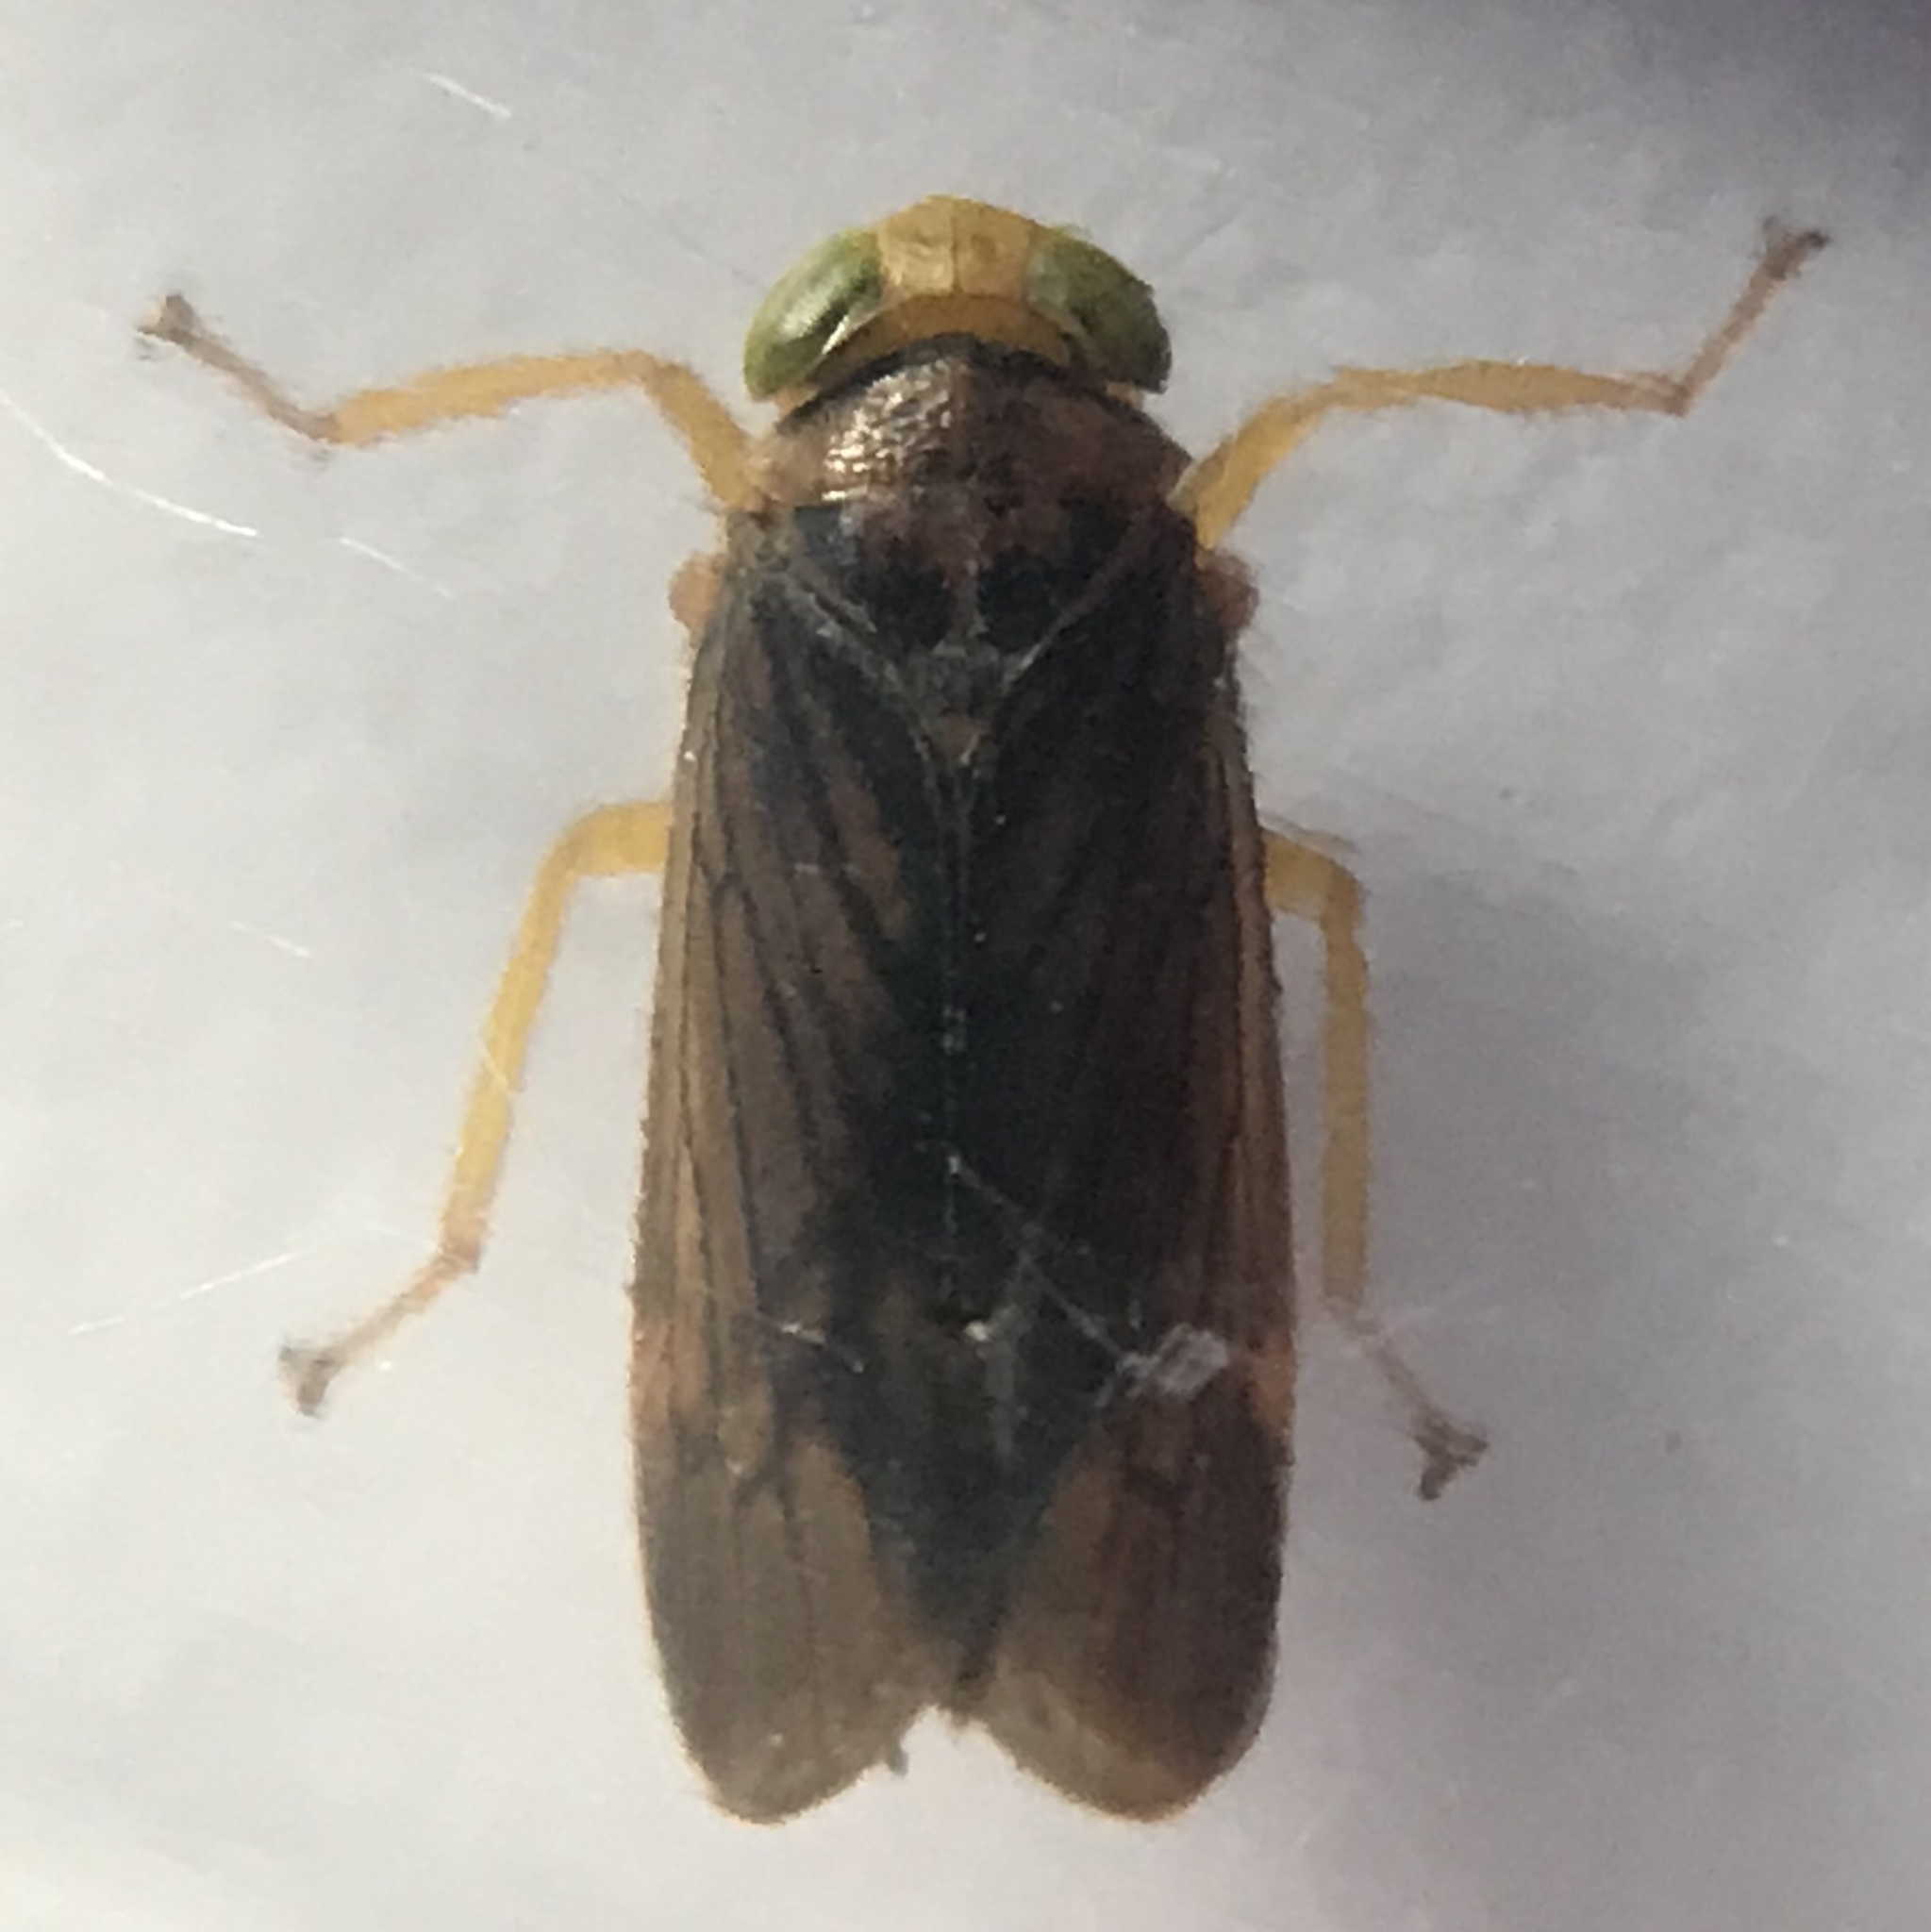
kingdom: Animalia
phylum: Arthropoda
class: Insecta
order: Hemiptera
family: Cicadellidae
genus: Jikradia
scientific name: Jikradia olitoria
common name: Coppery leafhopper
